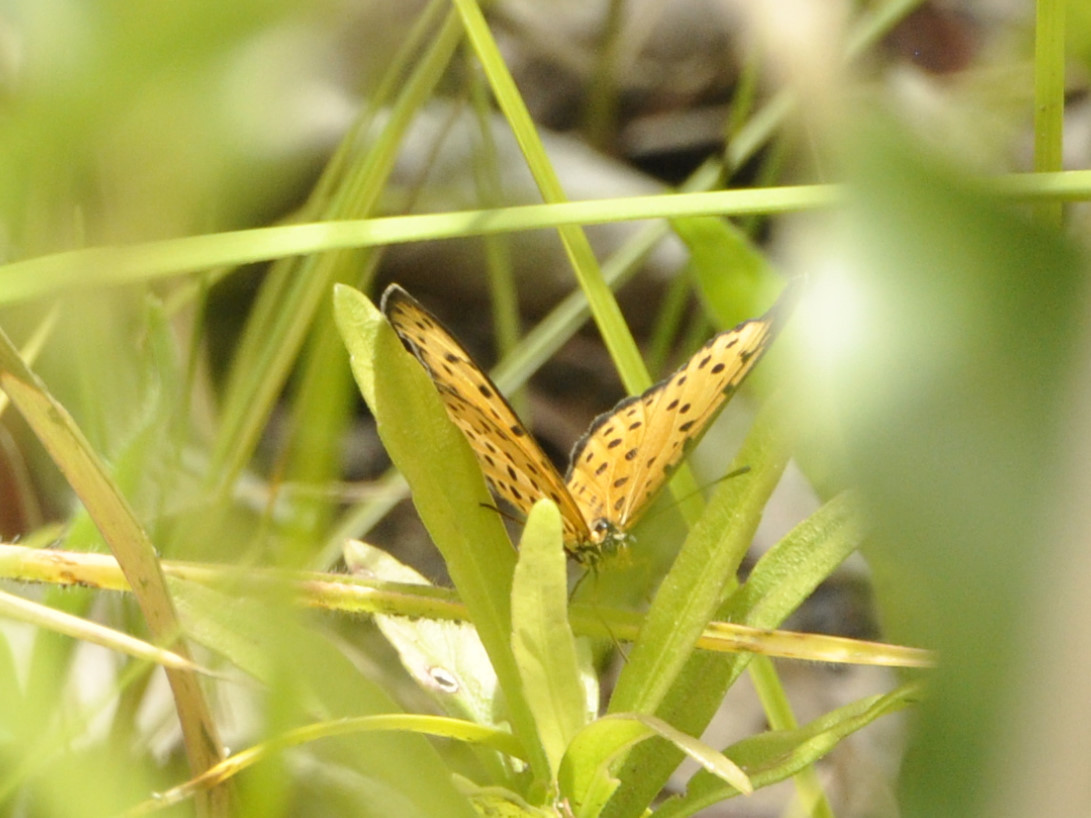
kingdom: Animalia
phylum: Arthropoda
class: Insecta
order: Lepidoptera
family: Nymphalidae
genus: Pardopsis
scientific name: Pardopsis punctatissima
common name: Polka dot
